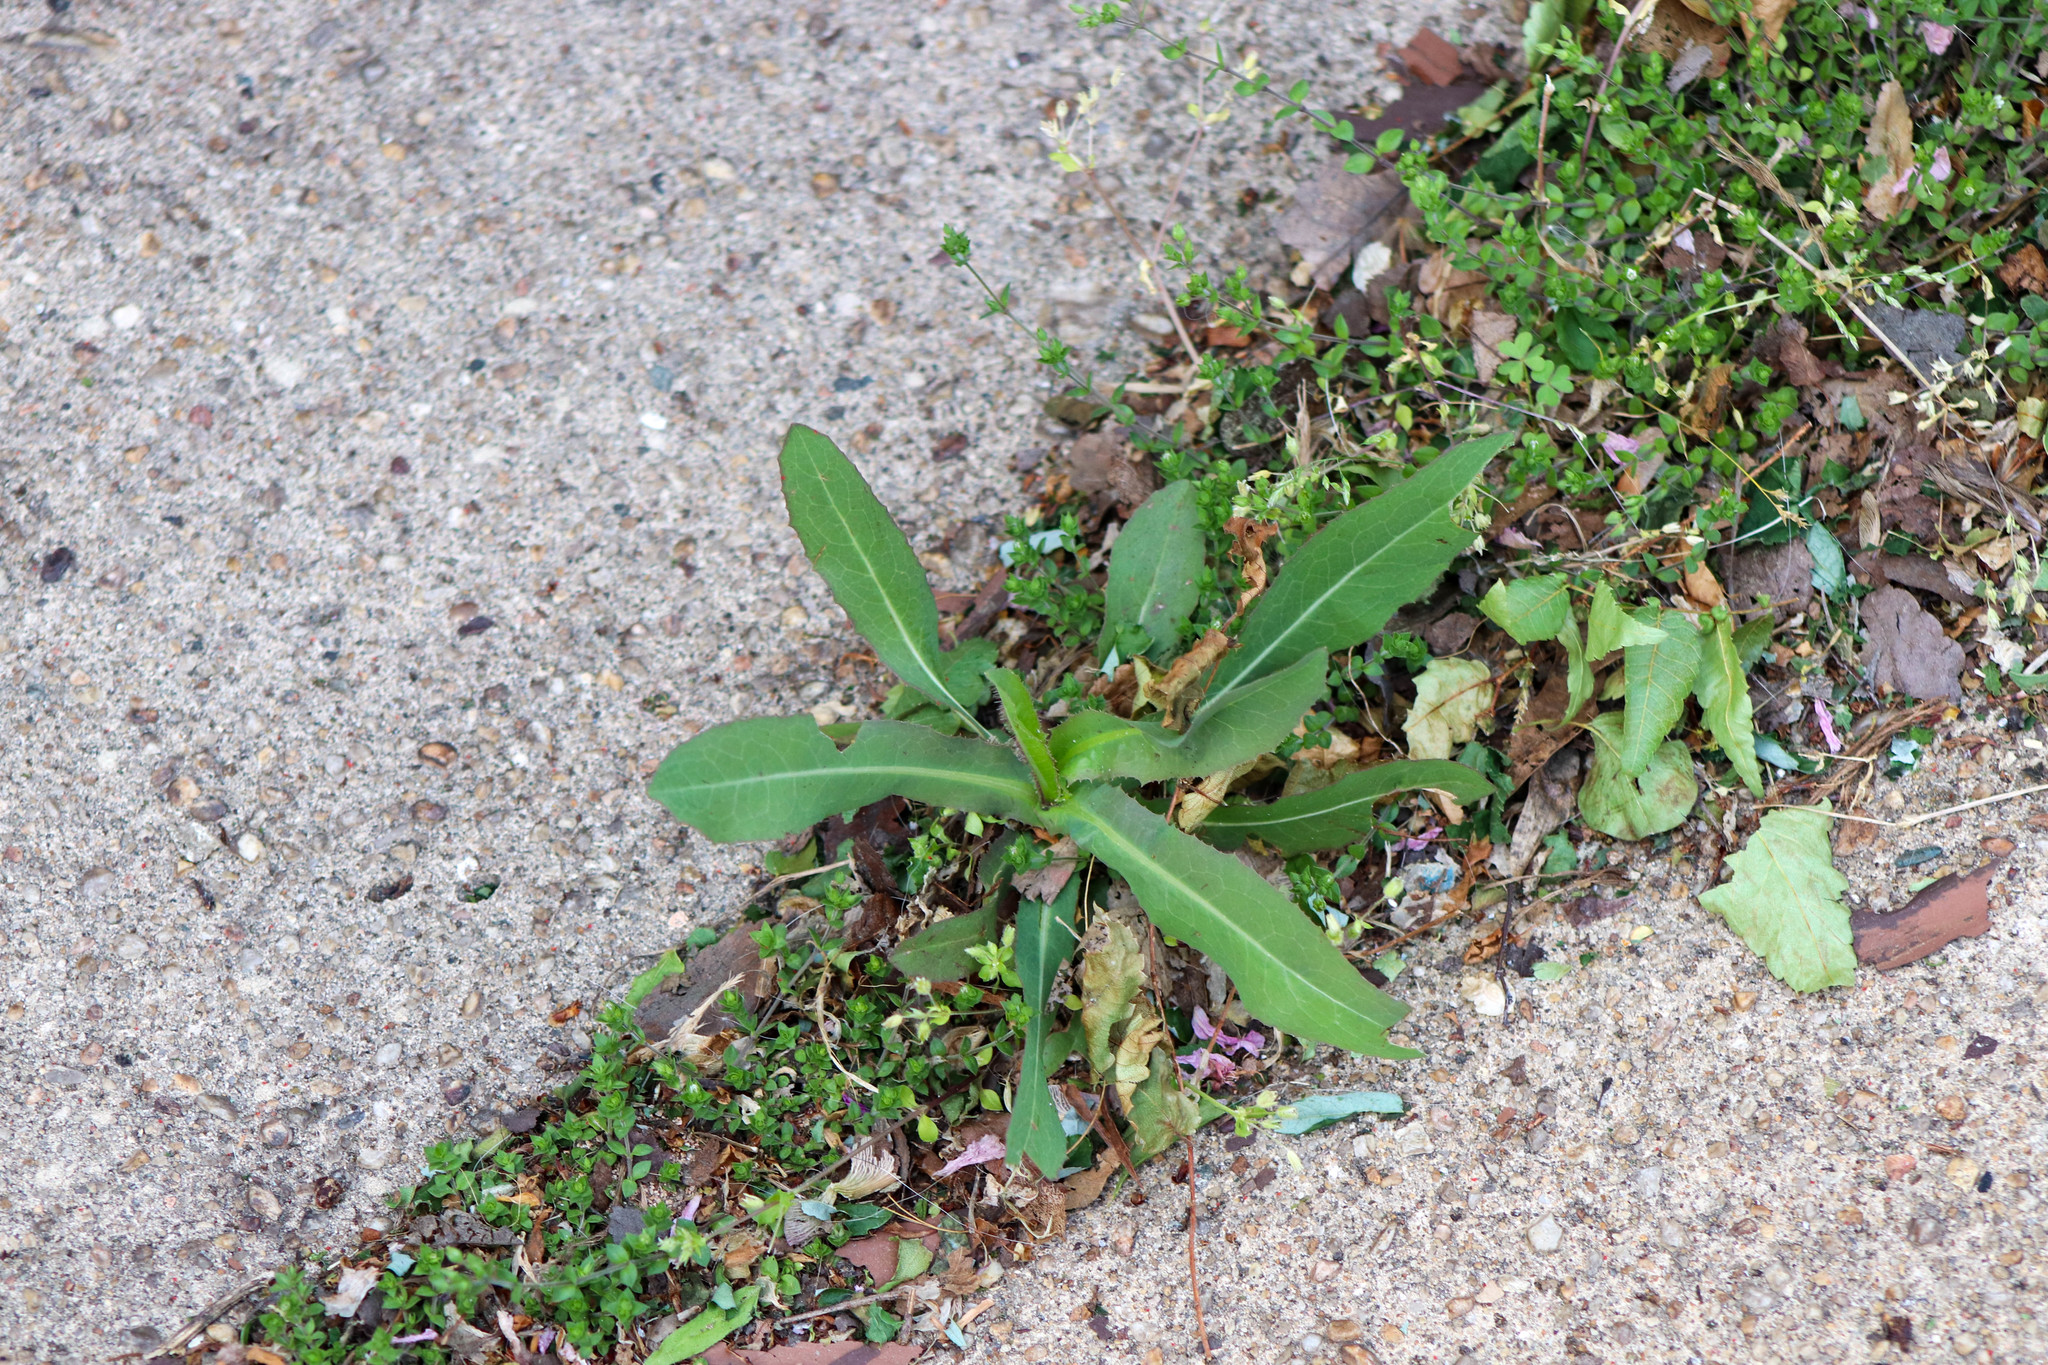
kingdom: Plantae
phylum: Tracheophyta
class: Magnoliopsida
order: Asterales
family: Asteraceae
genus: Lactuca
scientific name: Lactuca serriola
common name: Prickly lettuce
